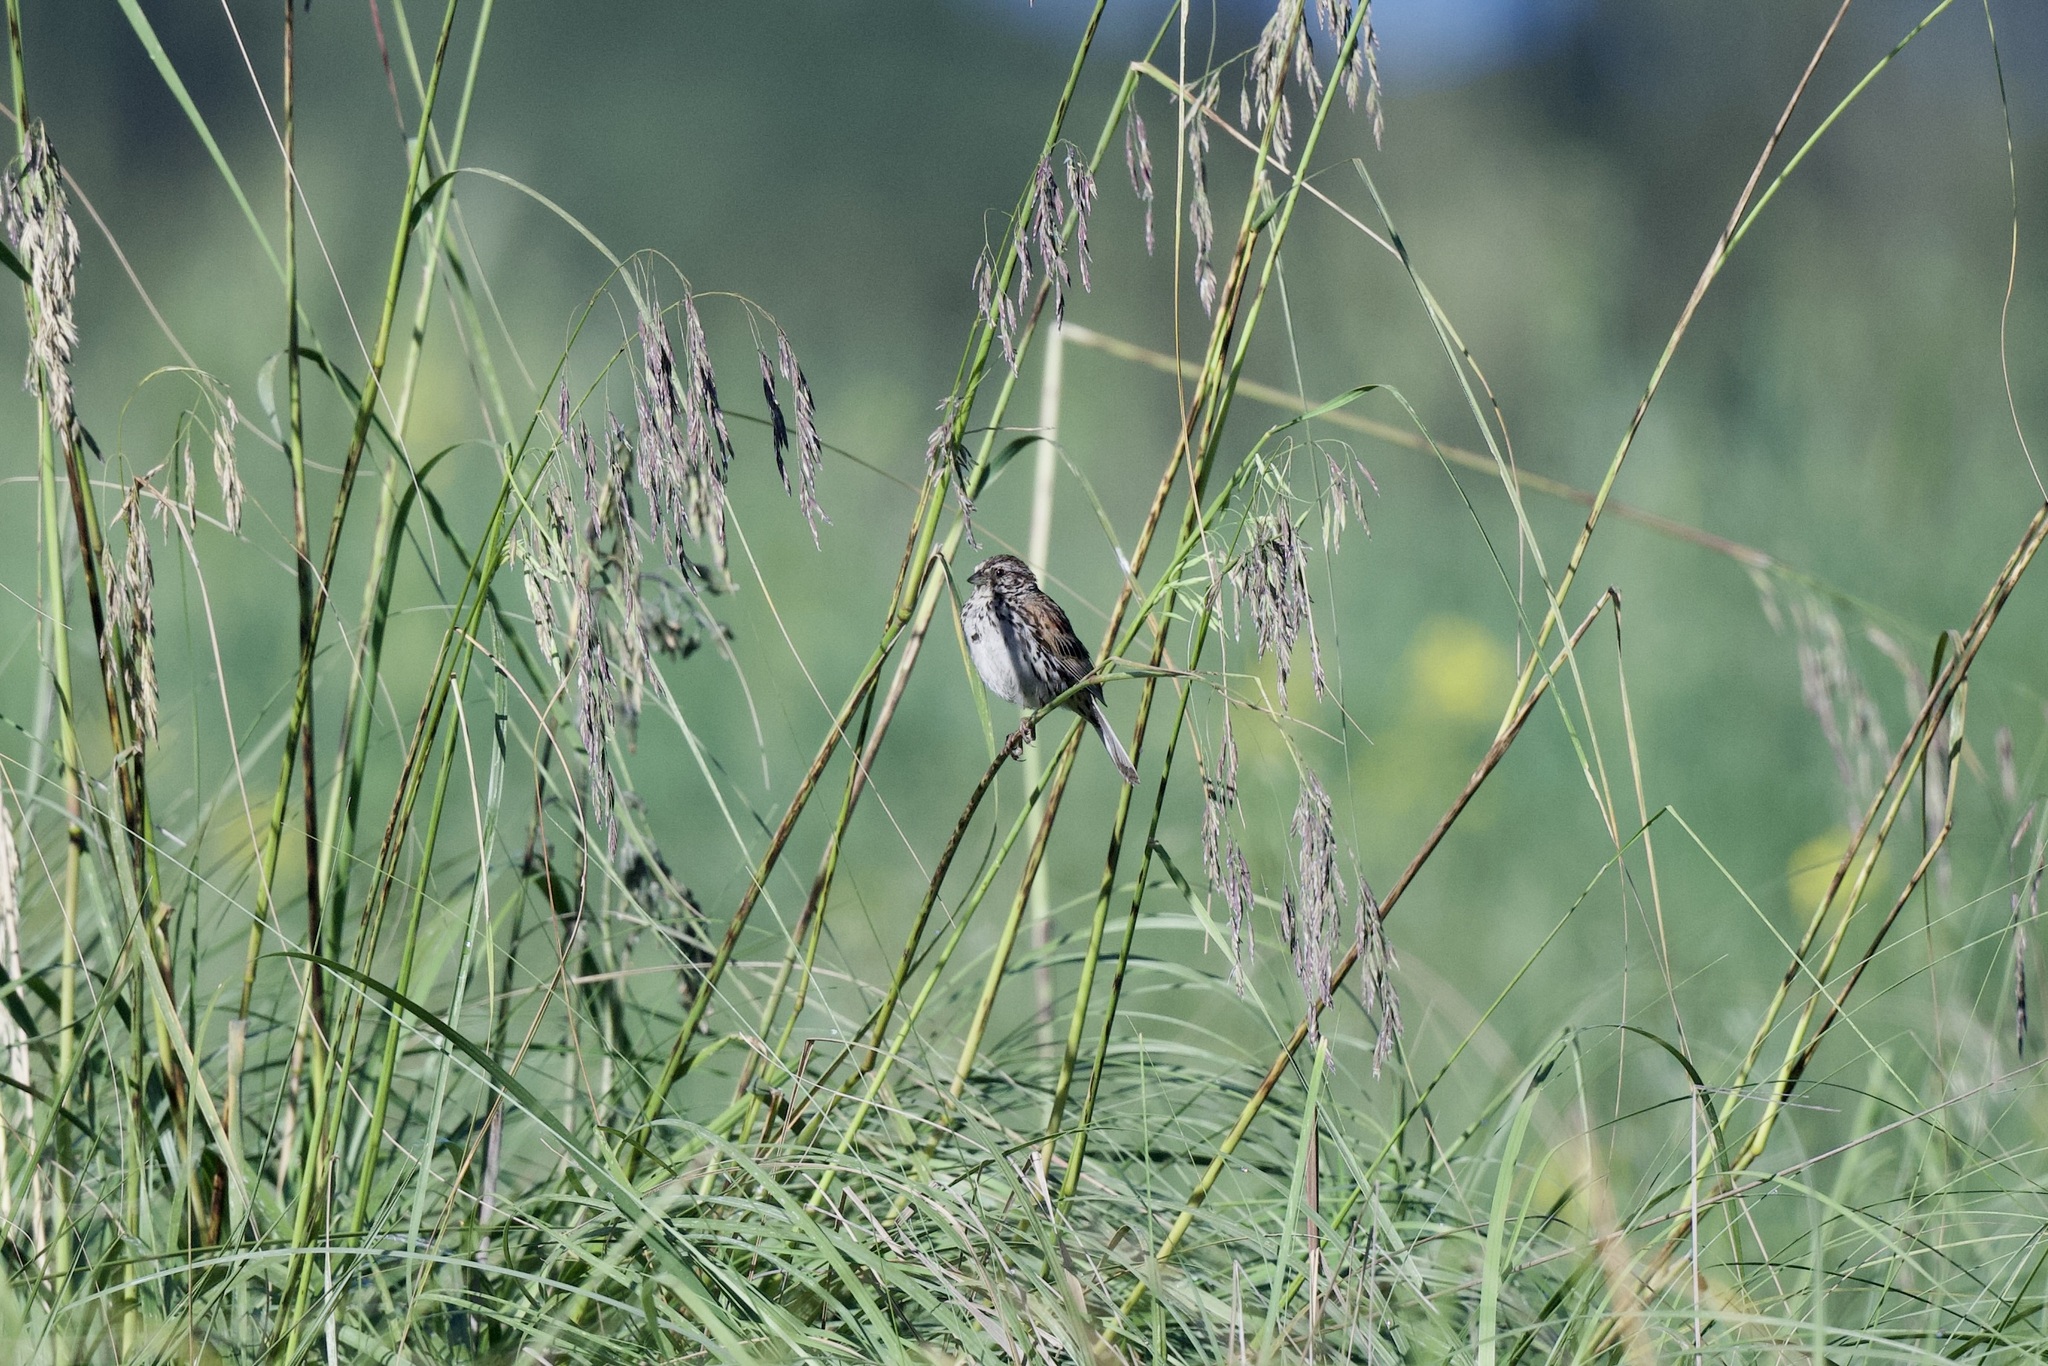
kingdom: Animalia
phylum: Chordata
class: Aves
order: Passeriformes
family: Passerellidae
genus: Xenospiza
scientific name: Xenospiza baileyi
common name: Sierra madre sparrow
